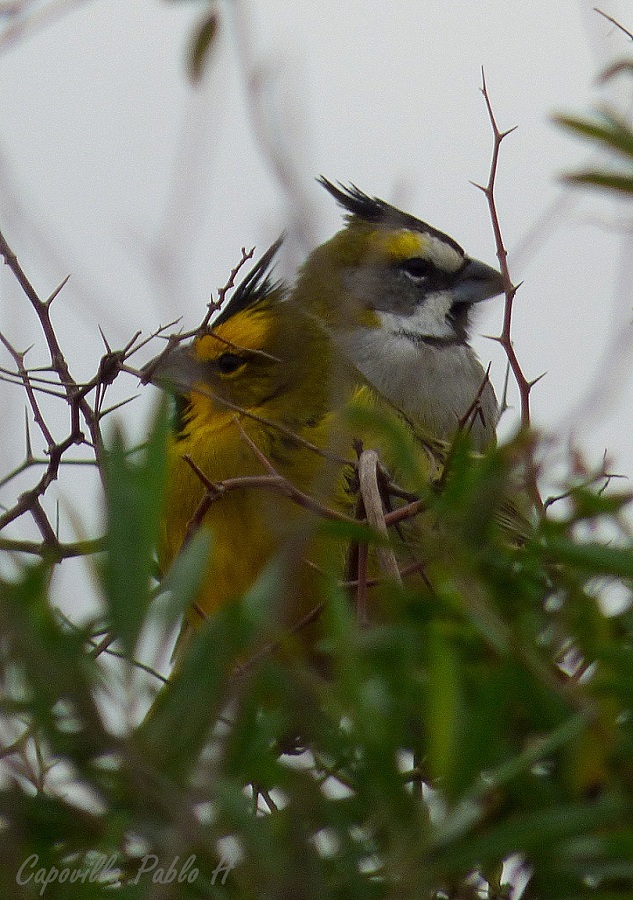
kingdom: Animalia
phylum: Chordata
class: Aves
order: Passeriformes
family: Thraupidae
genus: Gubernatrix
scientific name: Gubernatrix cristata
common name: Yellow cardinal
